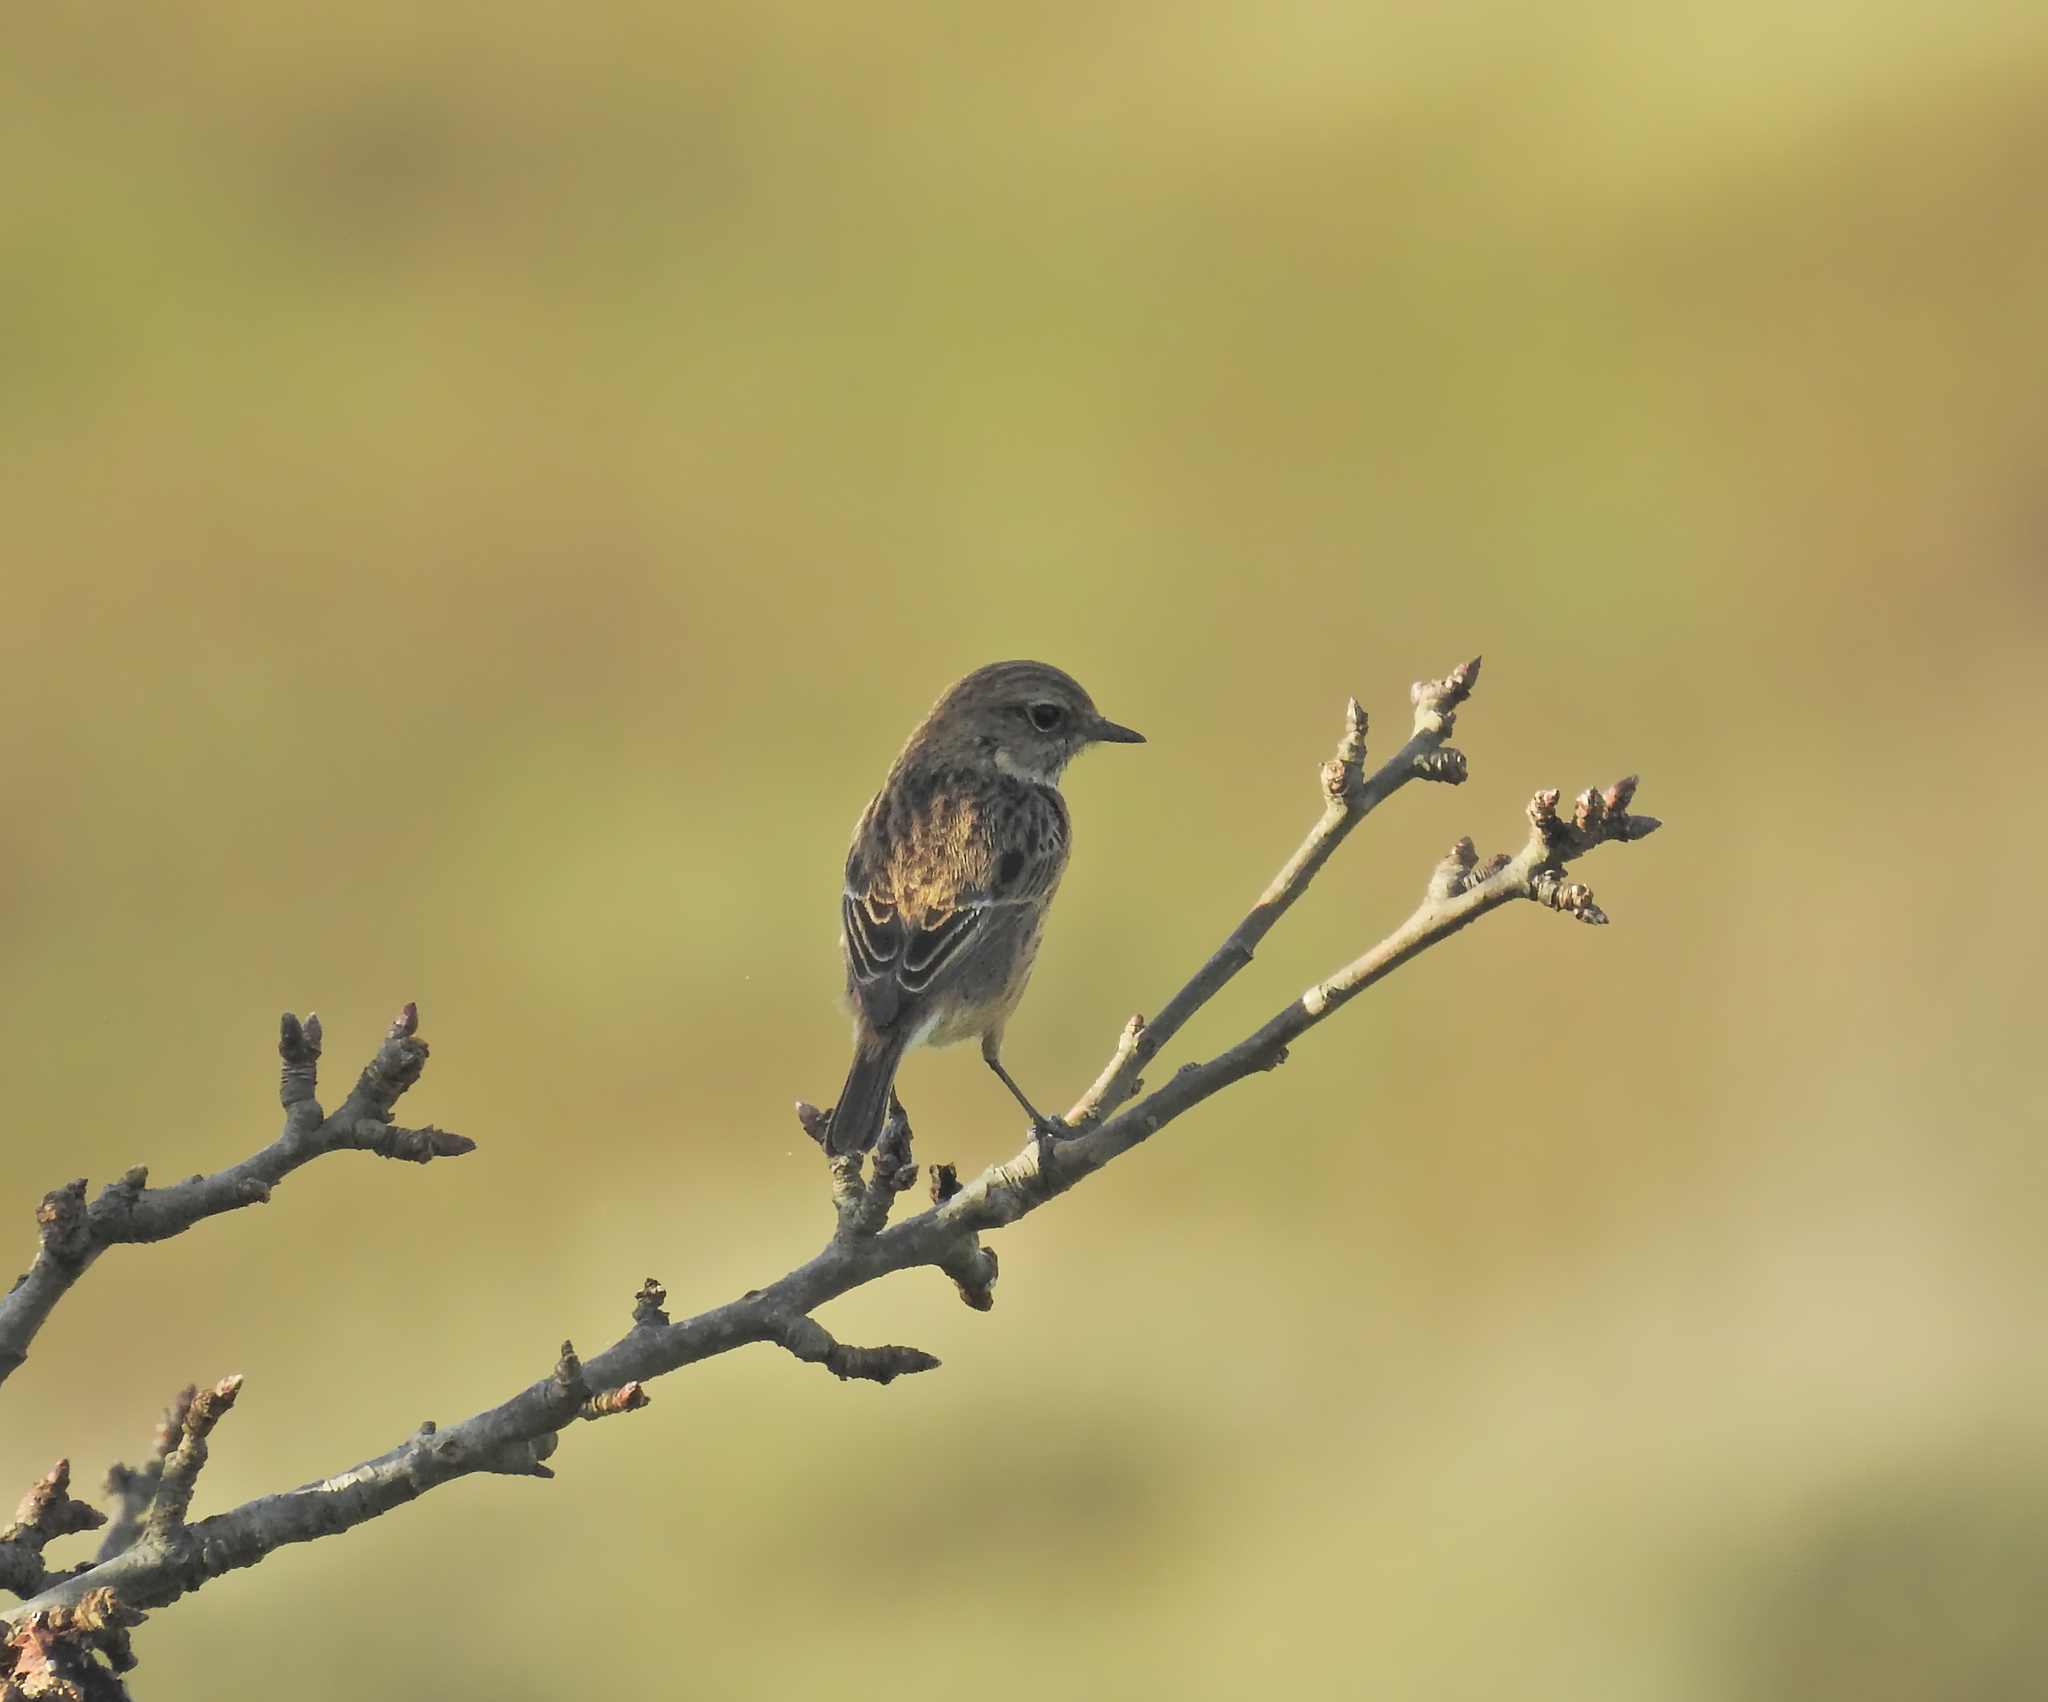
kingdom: Animalia
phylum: Chordata
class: Aves
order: Passeriformes
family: Muscicapidae
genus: Saxicola
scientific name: Saxicola rubicola
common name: European stonechat
